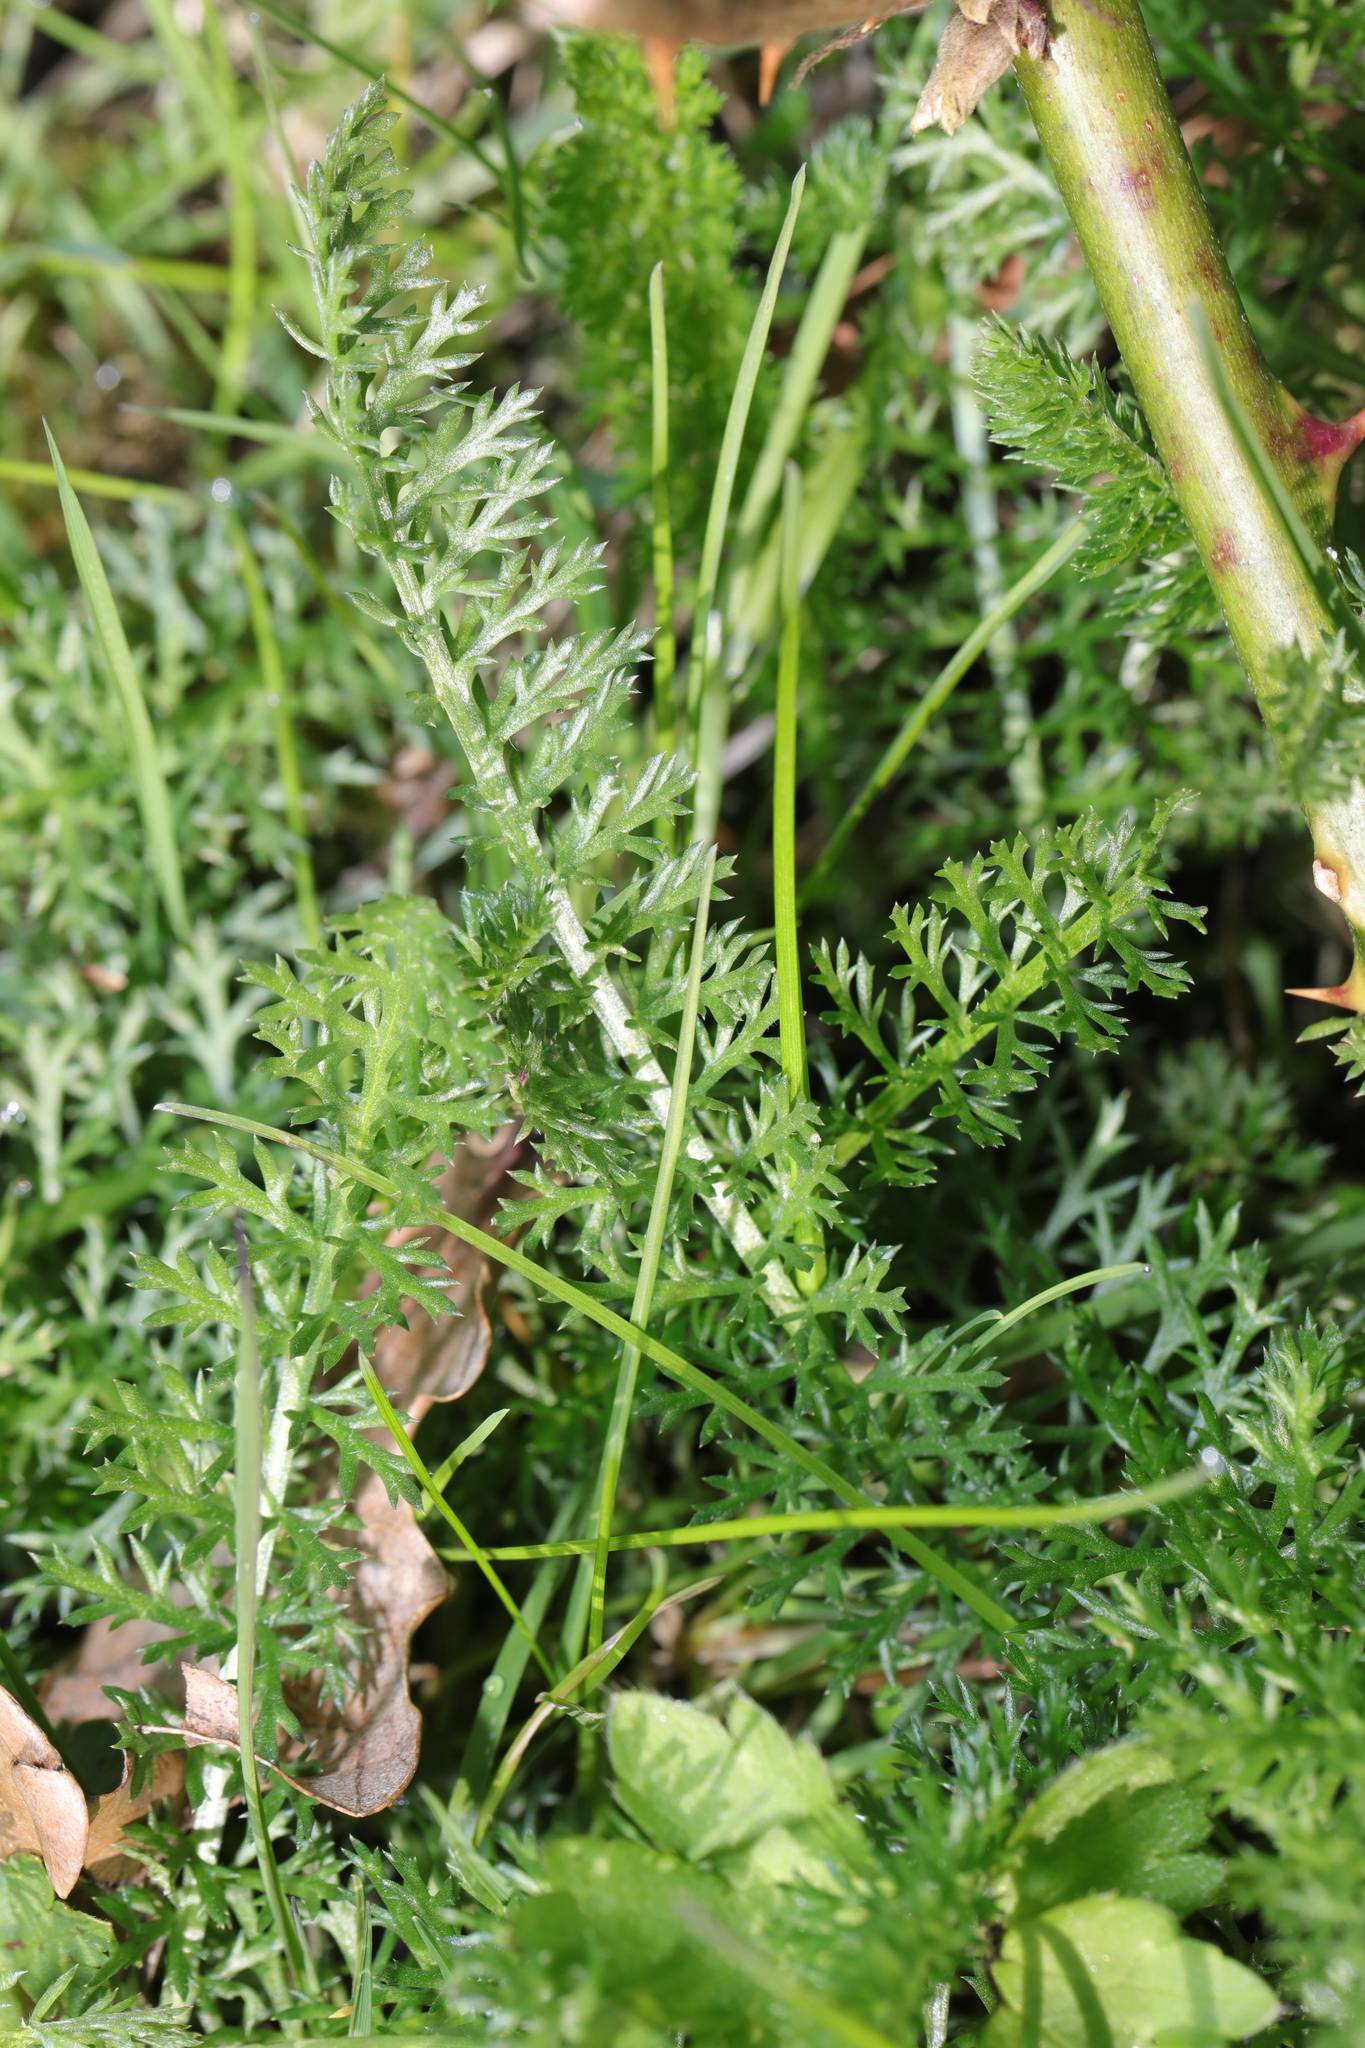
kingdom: Plantae
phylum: Tracheophyta
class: Magnoliopsida
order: Asterales
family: Asteraceae
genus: Achillea
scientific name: Achillea millefolium
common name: Yarrow
